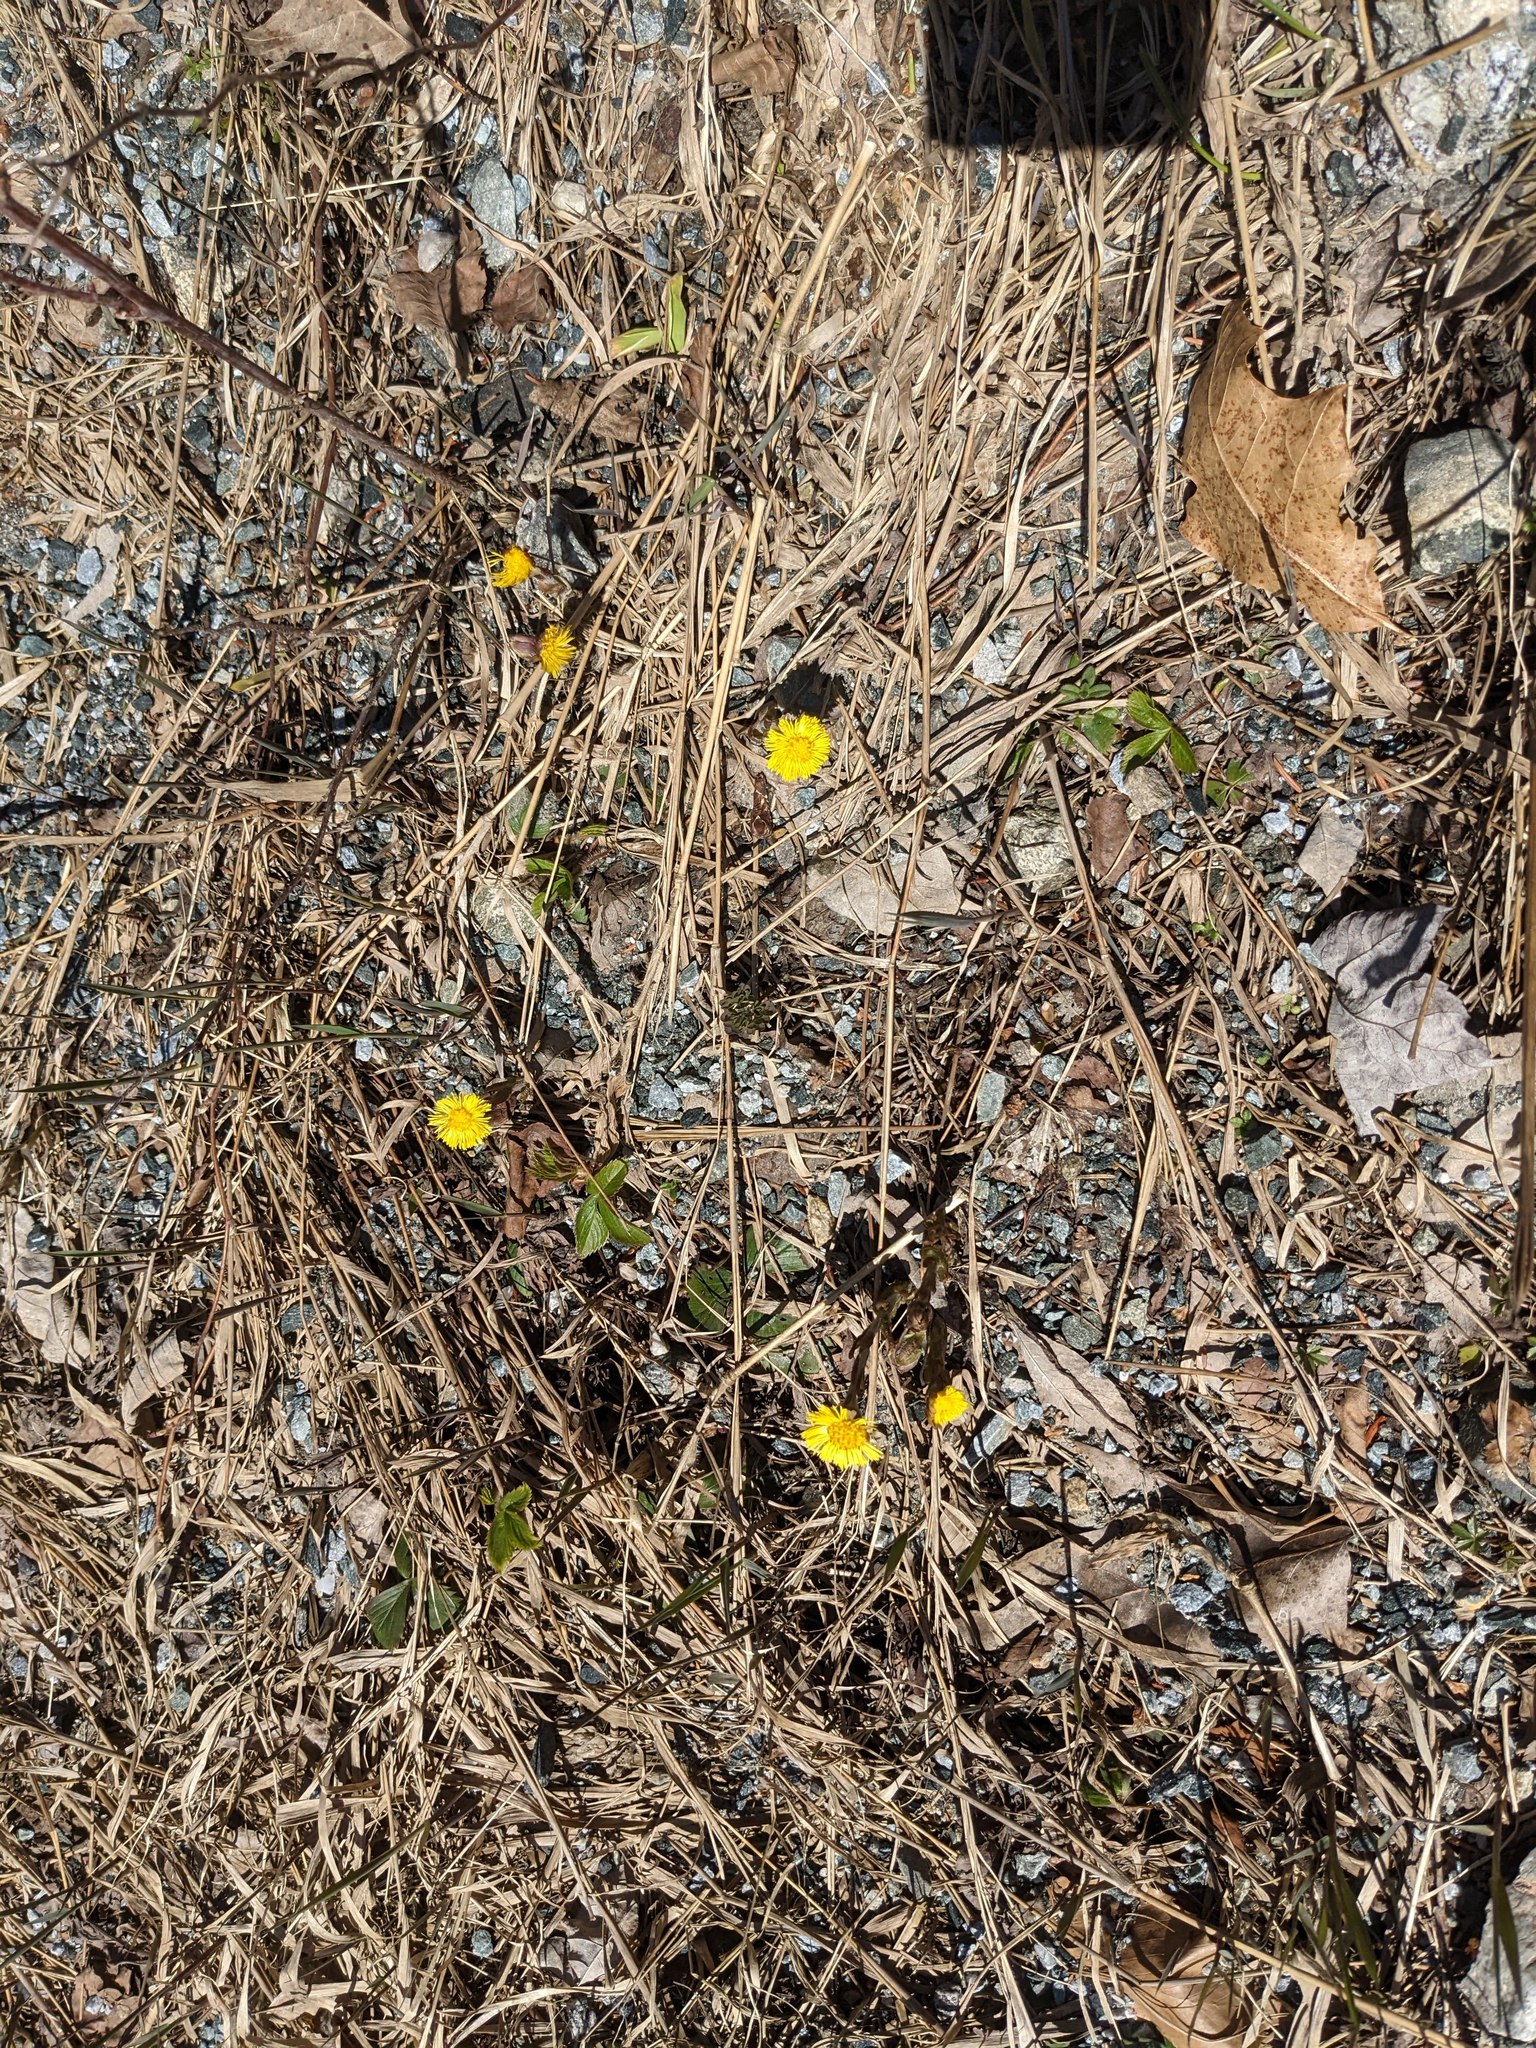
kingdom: Plantae
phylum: Tracheophyta
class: Magnoliopsida
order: Asterales
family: Asteraceae
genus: Tussilago
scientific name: Tussilago farfara
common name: Coltsfoot
